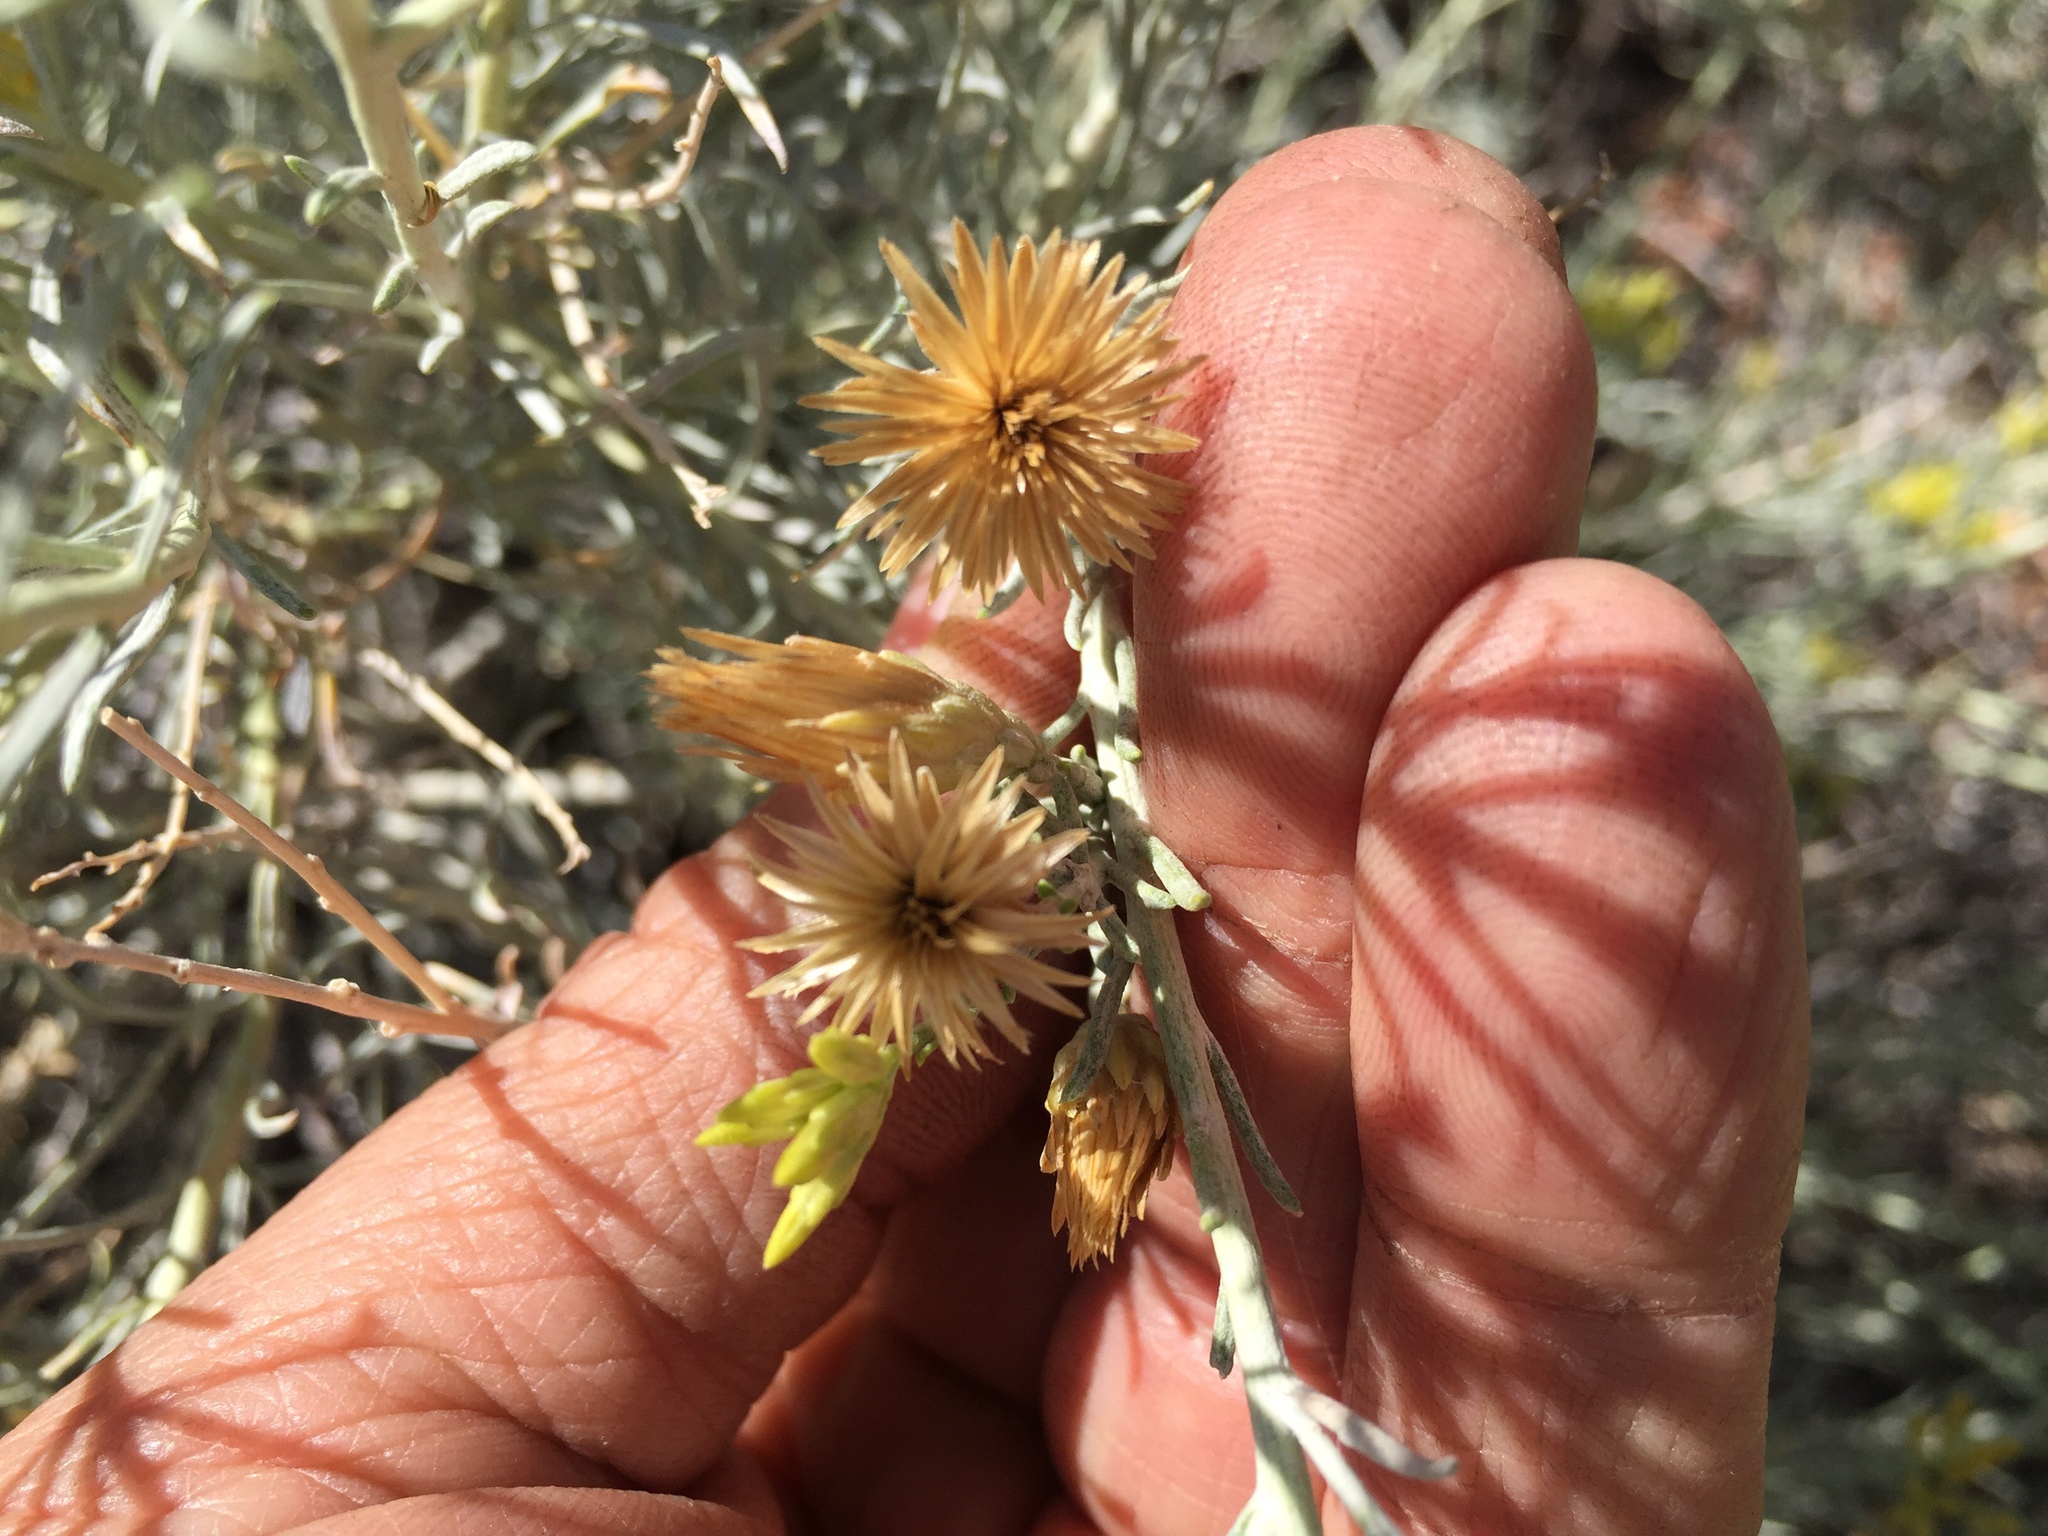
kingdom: Plantae
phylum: Tracheophyta
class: Magnoliopsida
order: Asterales
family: Asteraceae
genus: Ericameria
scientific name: Ericameria nauseosa
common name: Rubber rabbitbrush
